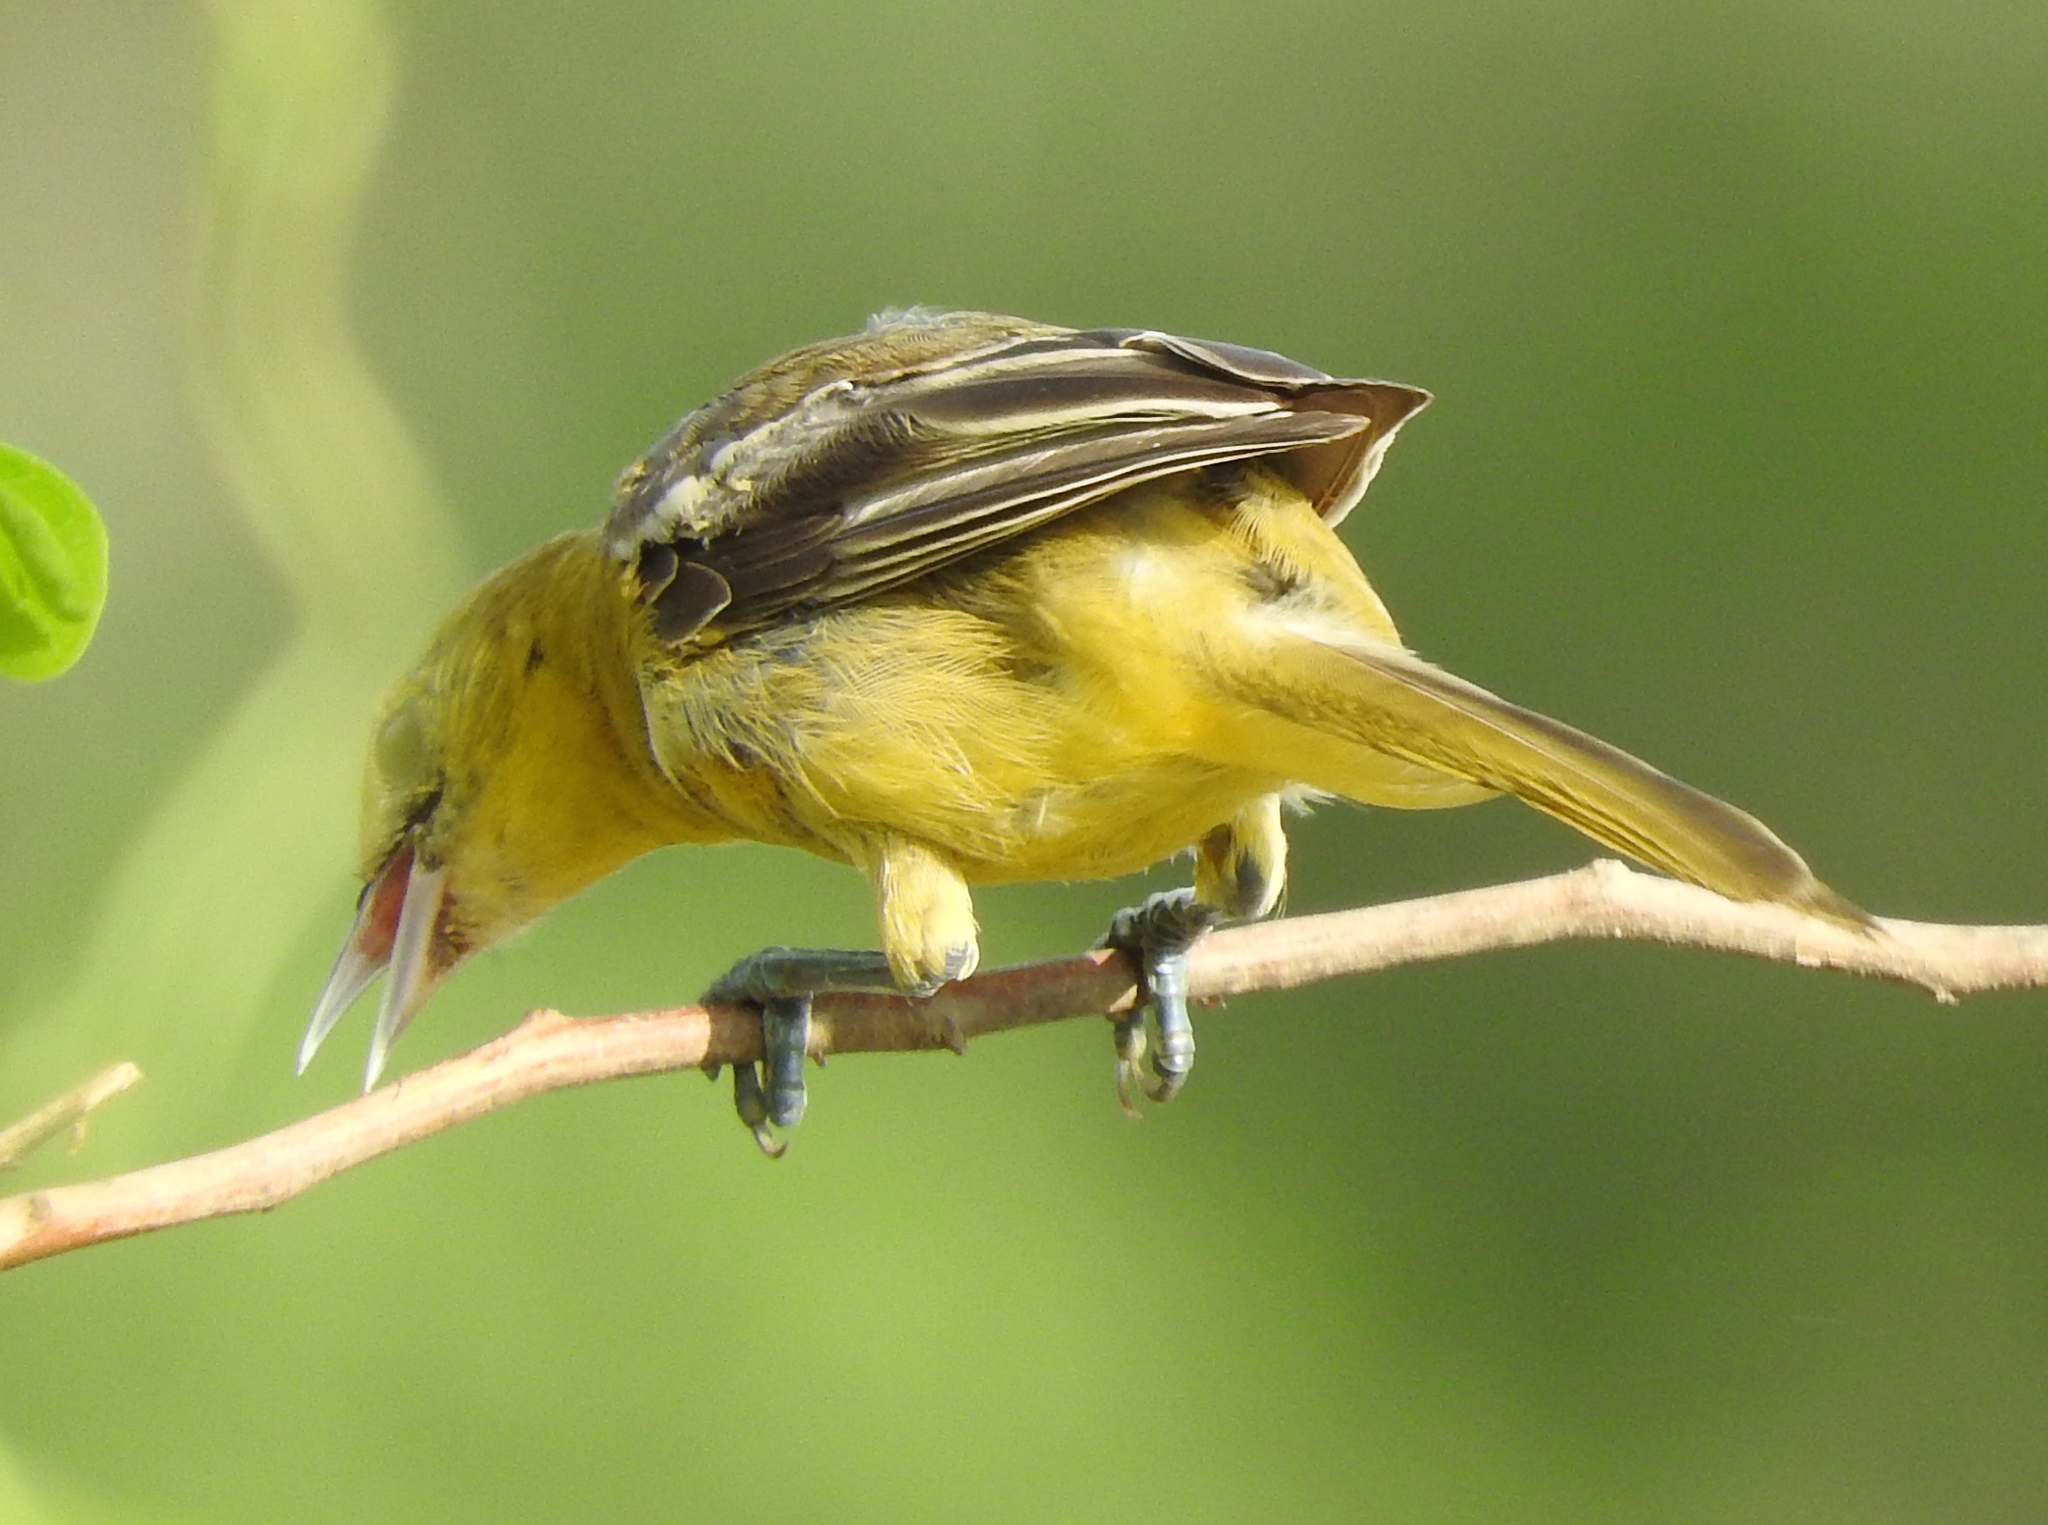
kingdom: Animalia
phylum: Chordata
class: Aves
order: Passeriformes
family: Icteridae
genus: Icterus
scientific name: Icterus pustulatus
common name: Streak-backed oriole
